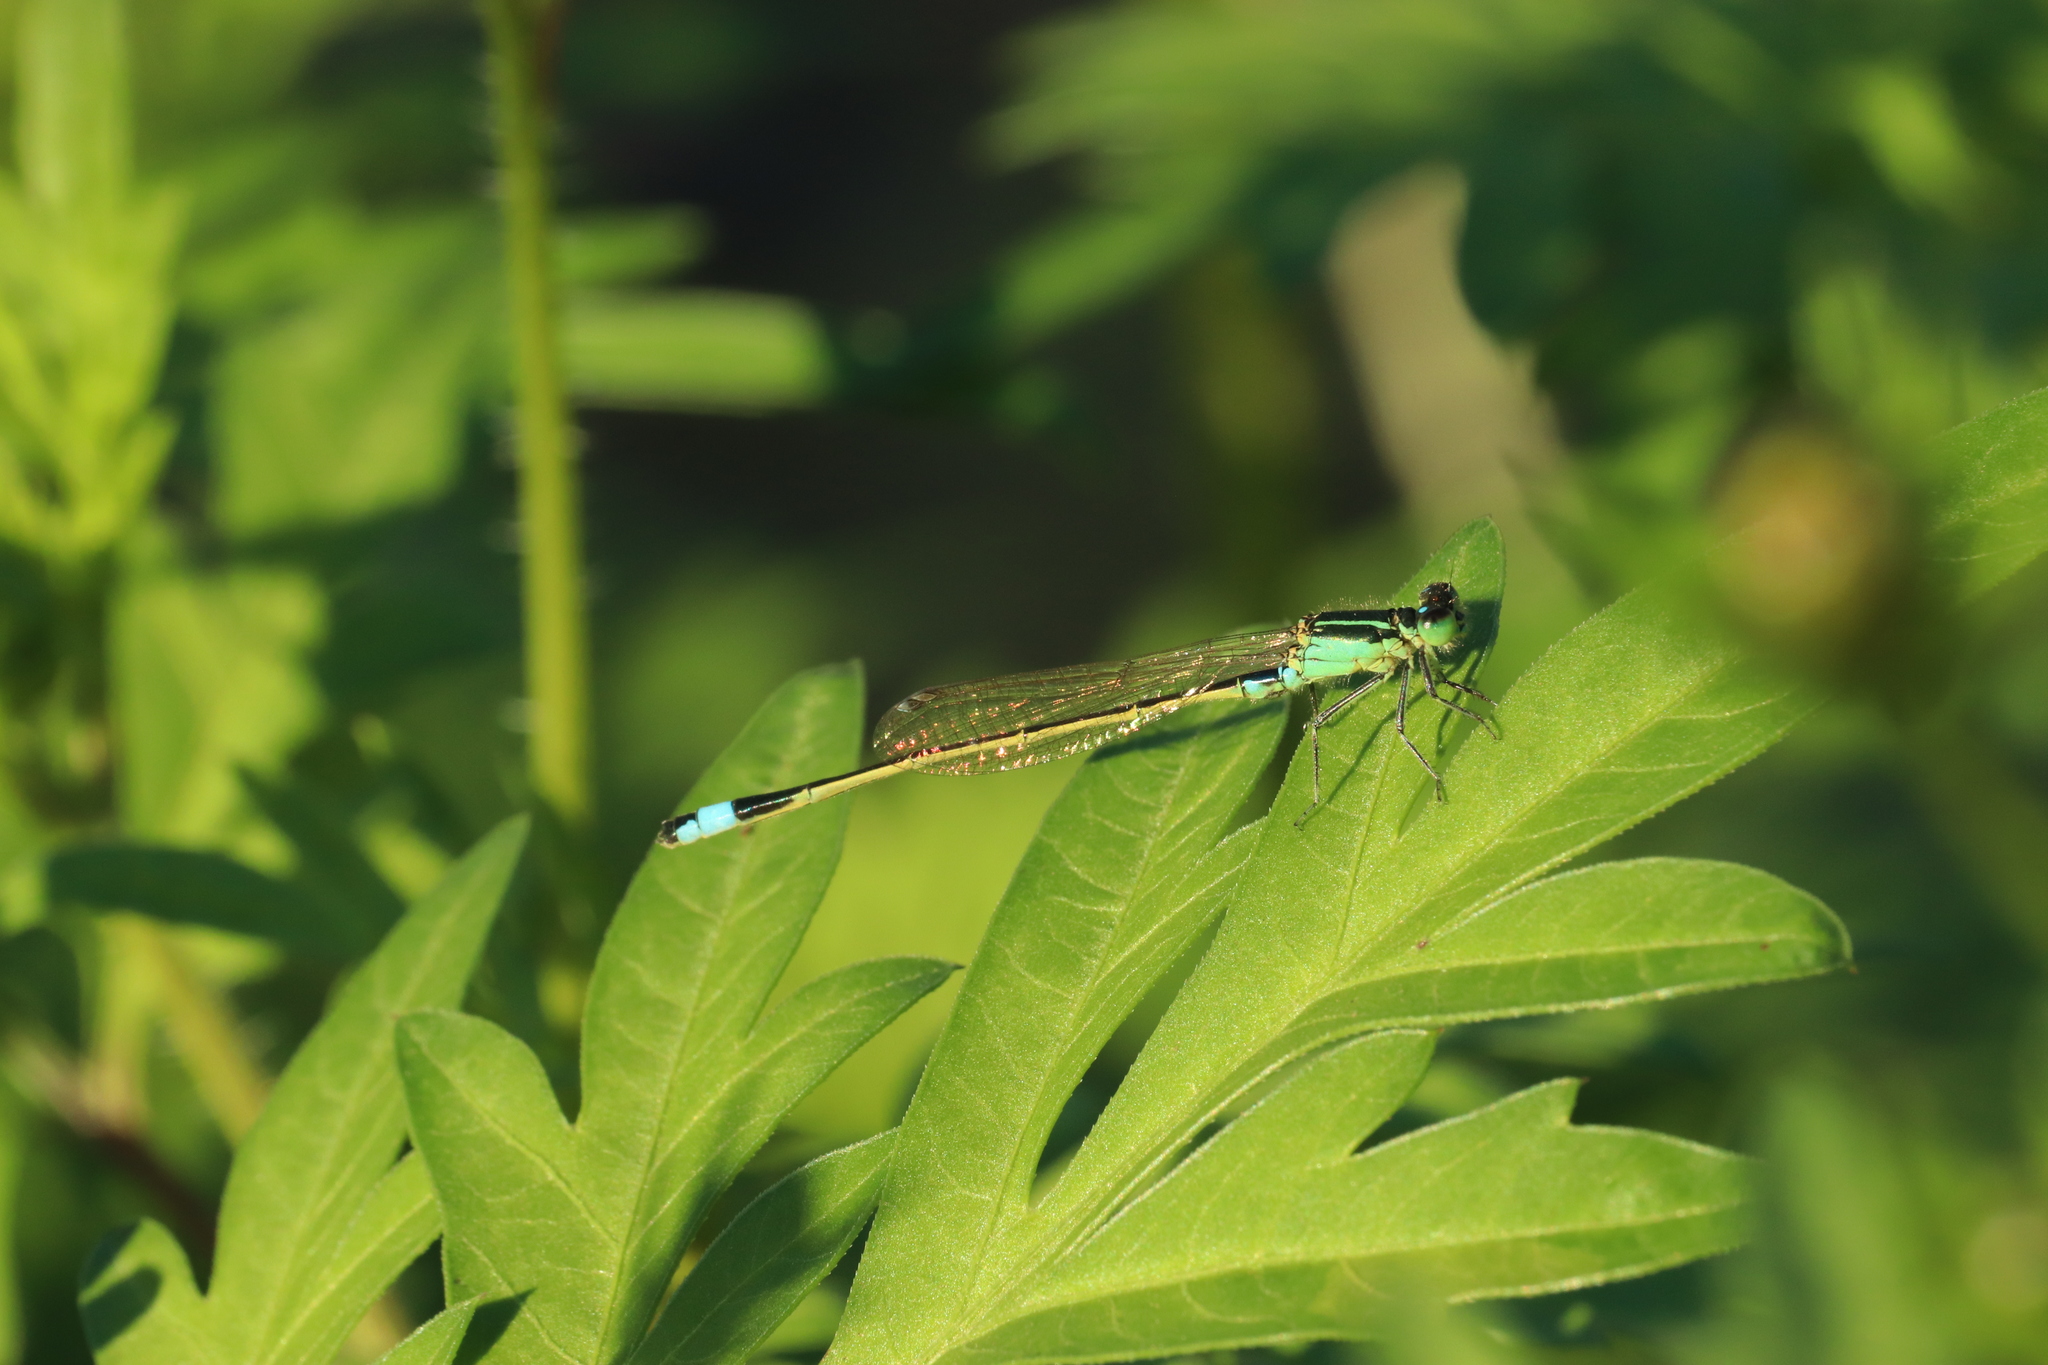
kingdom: Animalia
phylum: Arthropoda
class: Insecta
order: Odonata
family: Coenagrionidae
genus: Ischnura
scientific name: Ischnura senegalensis
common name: Tropical bluetail
